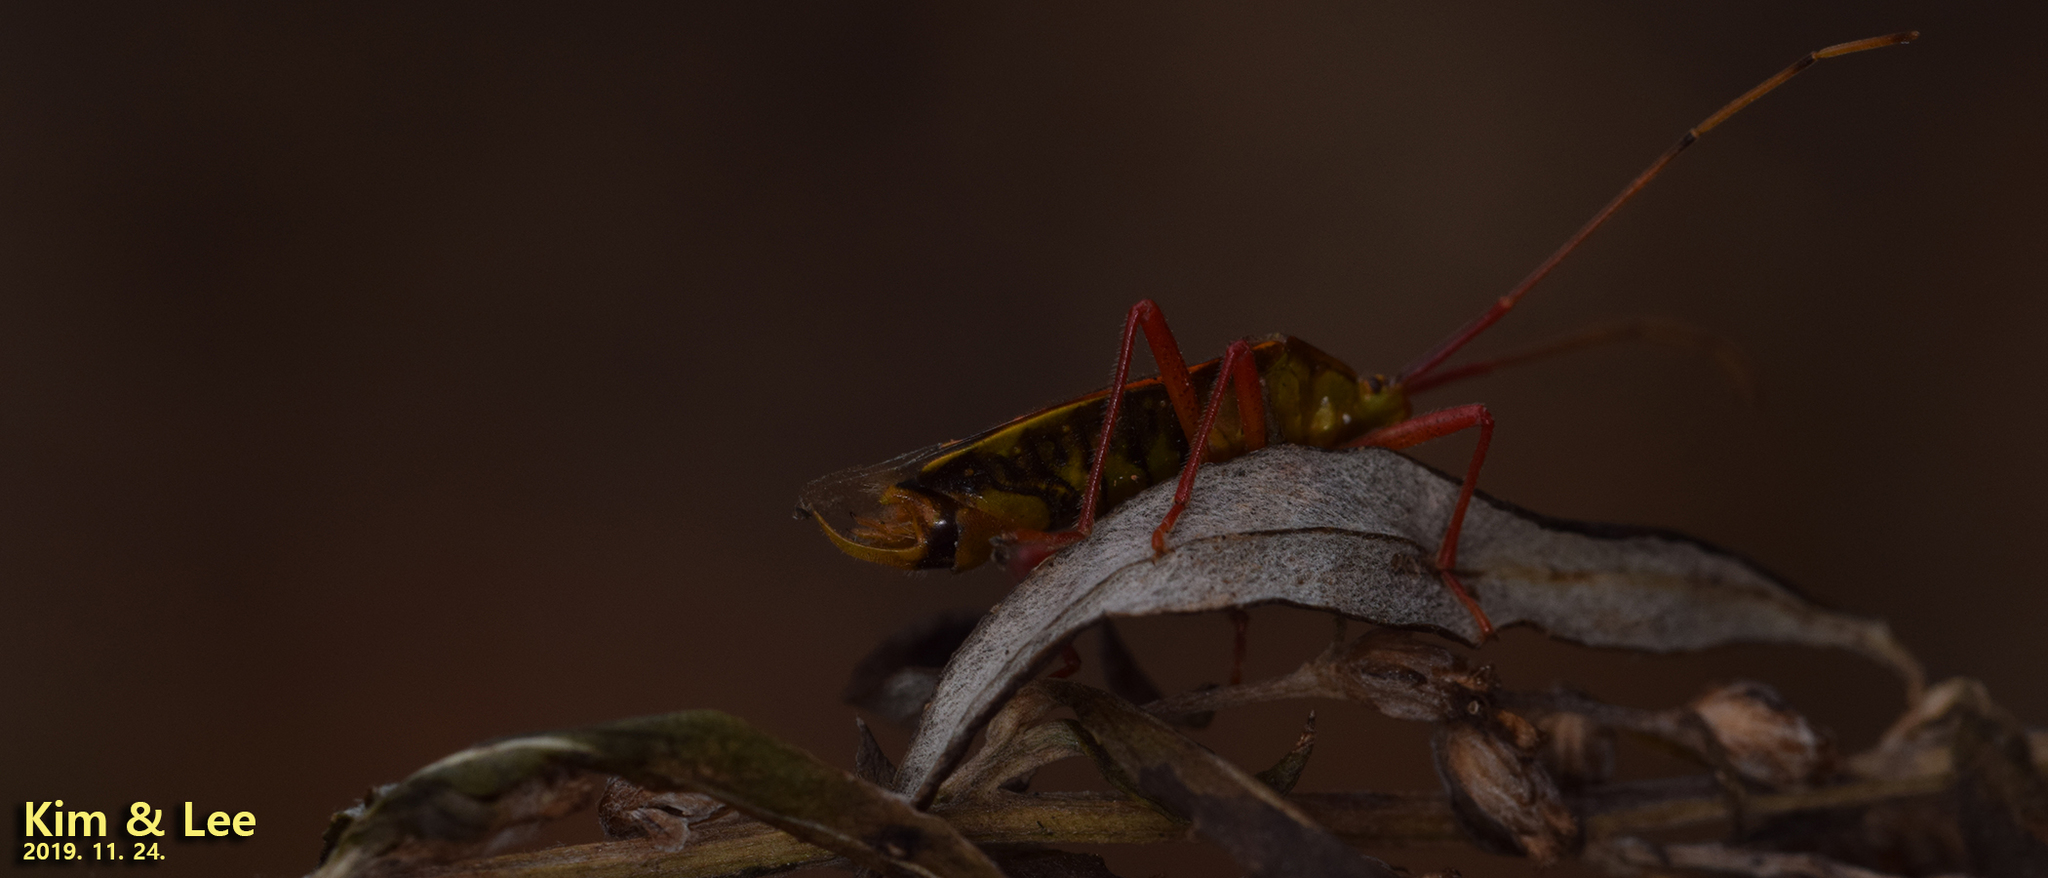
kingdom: Animalia
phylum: Arthropoda
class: Insecta
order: Hemiptera
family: Urostylididae
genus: Urostylis
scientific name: Urostylis lateralis
